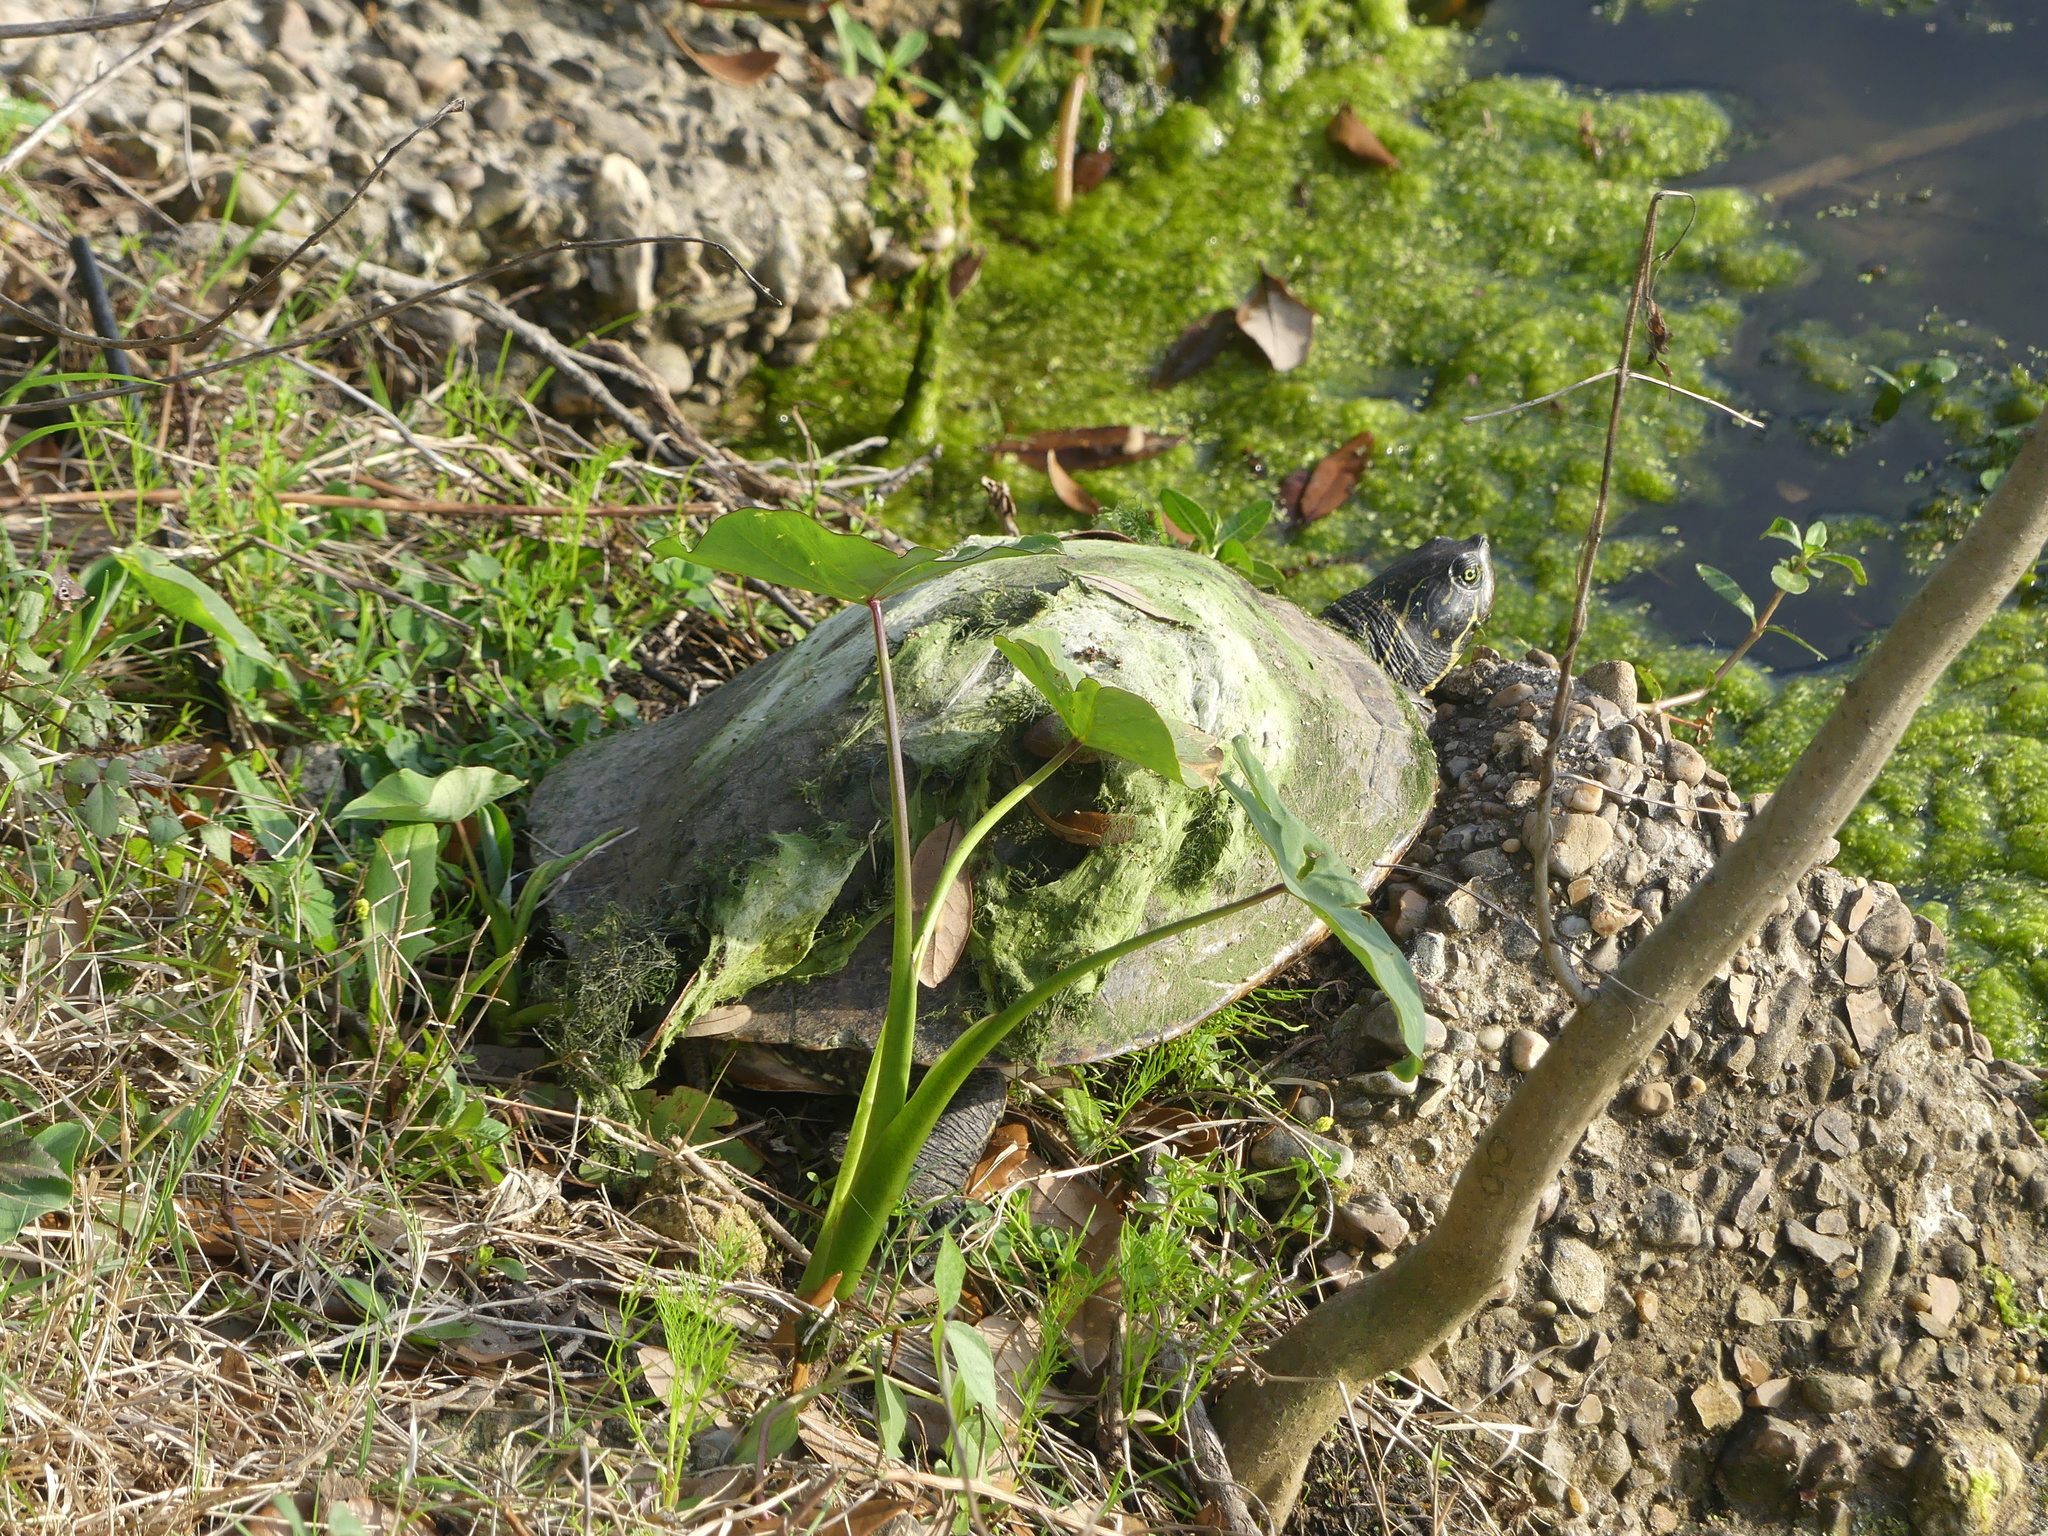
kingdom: Animalia
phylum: Chordata
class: Testudines
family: Emydidae
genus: Pseudemys
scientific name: Pseudemys concinna
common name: Eastern river cooter
